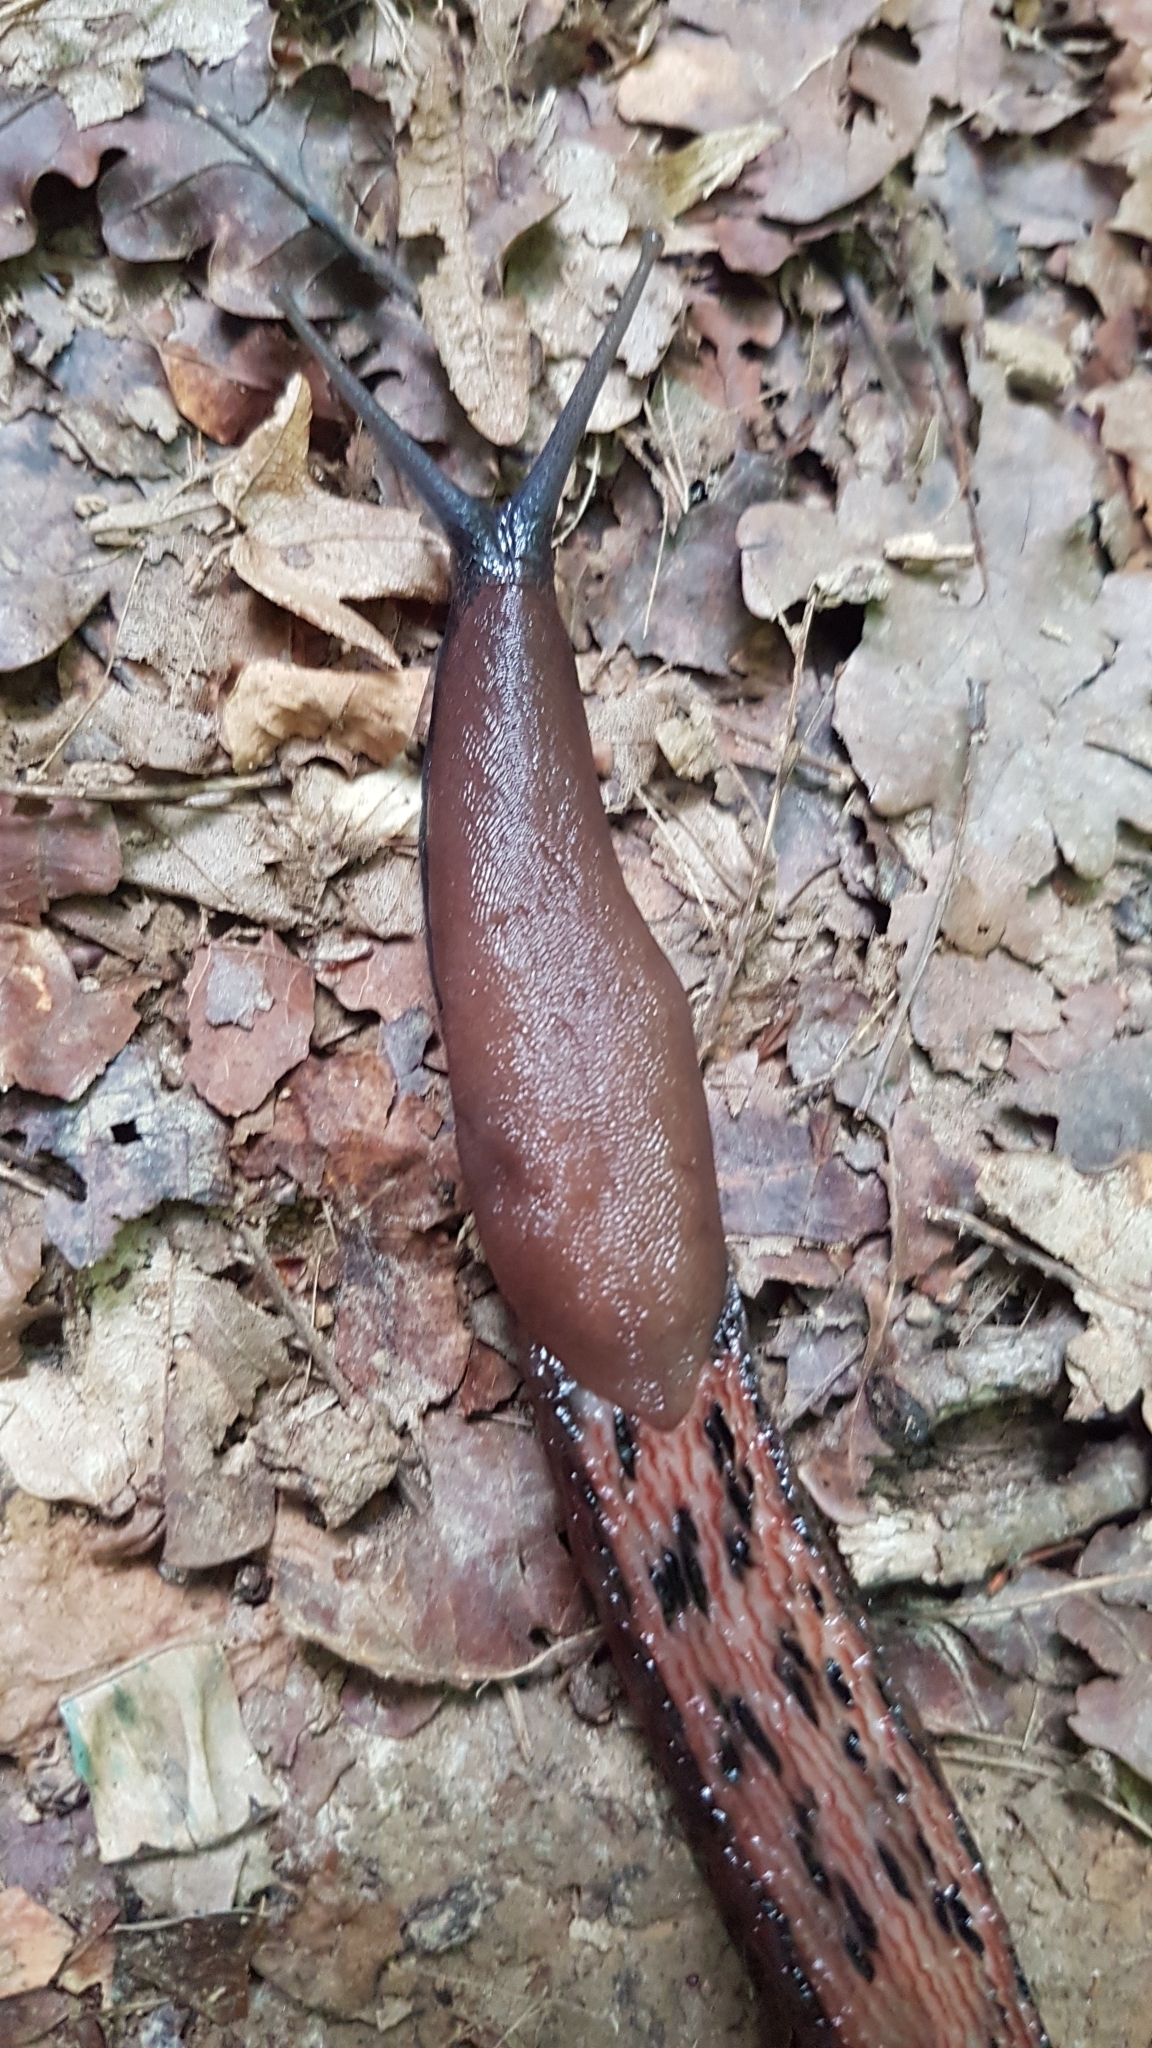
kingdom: Animalia
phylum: Mollusca
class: Gastropoda
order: Stylommatophora
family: Limacidae
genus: Limax
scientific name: Limax dacampi
